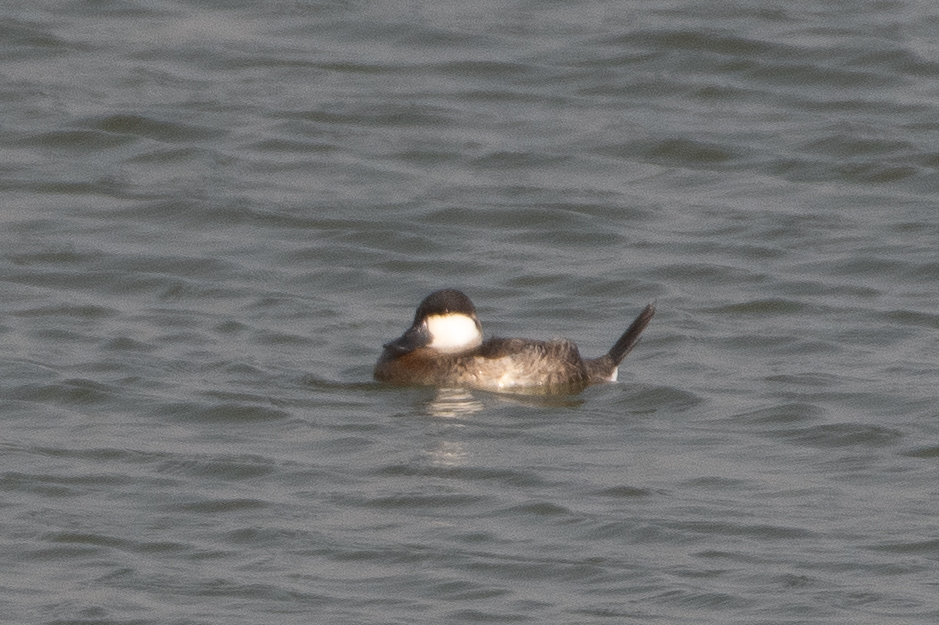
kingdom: Animalia
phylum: Chordata
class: Aves
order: Anseriformes
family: Anatidae
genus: Oxyura
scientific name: Oxyura jamaicensis
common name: Ruddy duck
